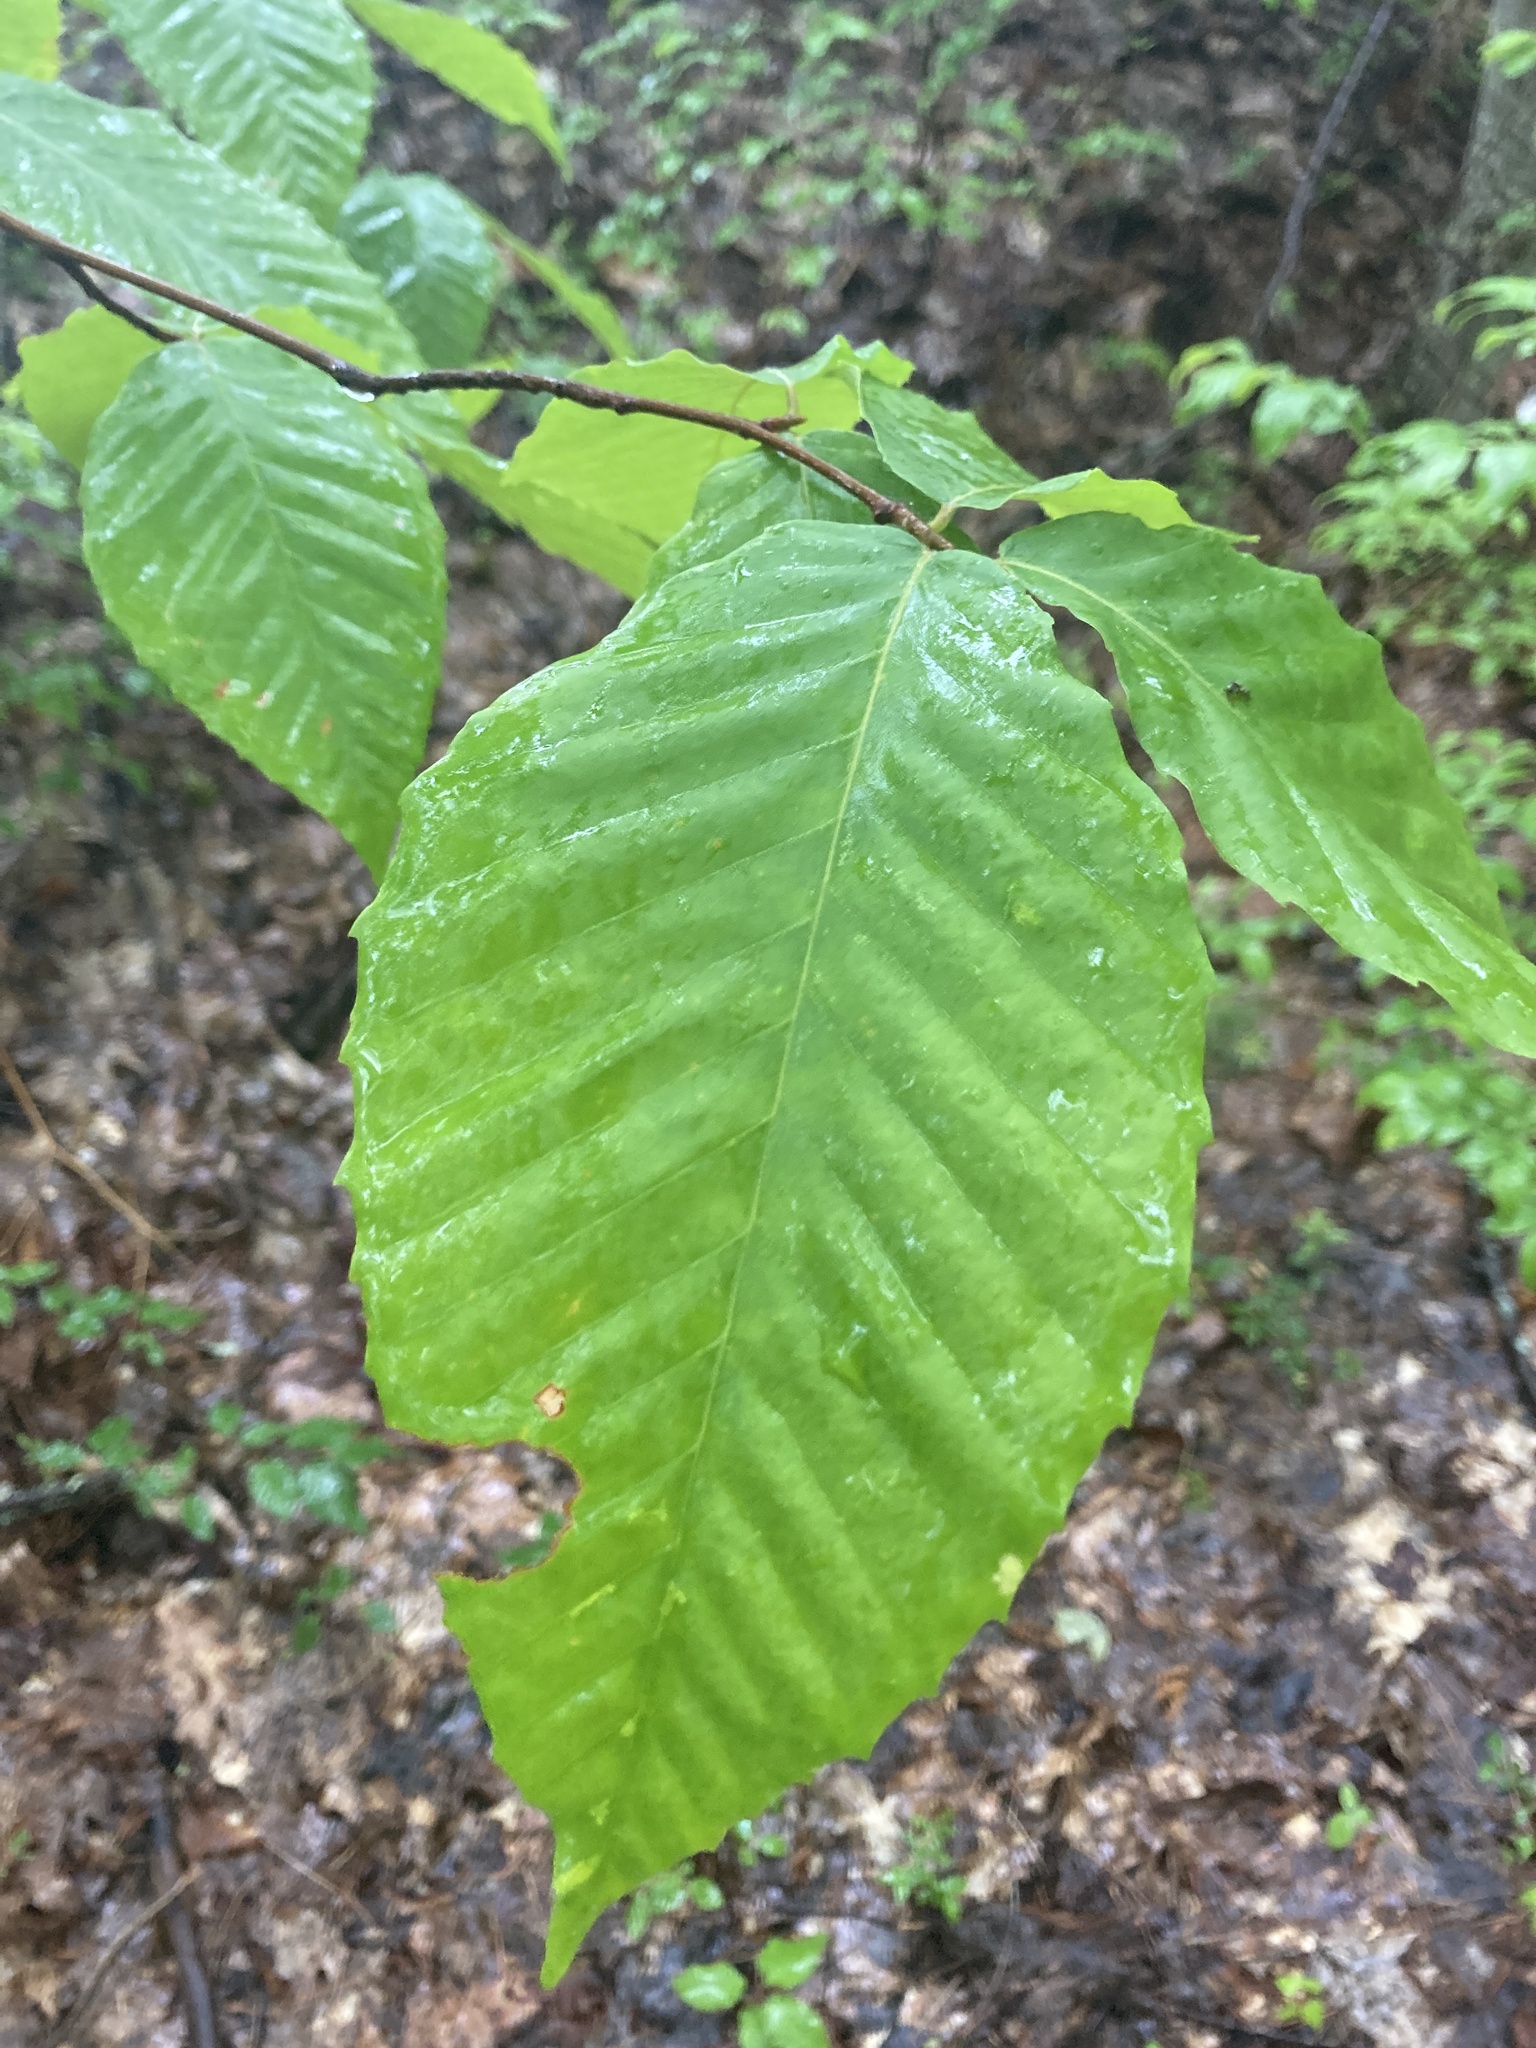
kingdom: Plantae
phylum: Tracheophyta
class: Magnoliopsida
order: Fagales
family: Fagaceae
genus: Fagus
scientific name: Fagus grandifolia
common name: American beech
